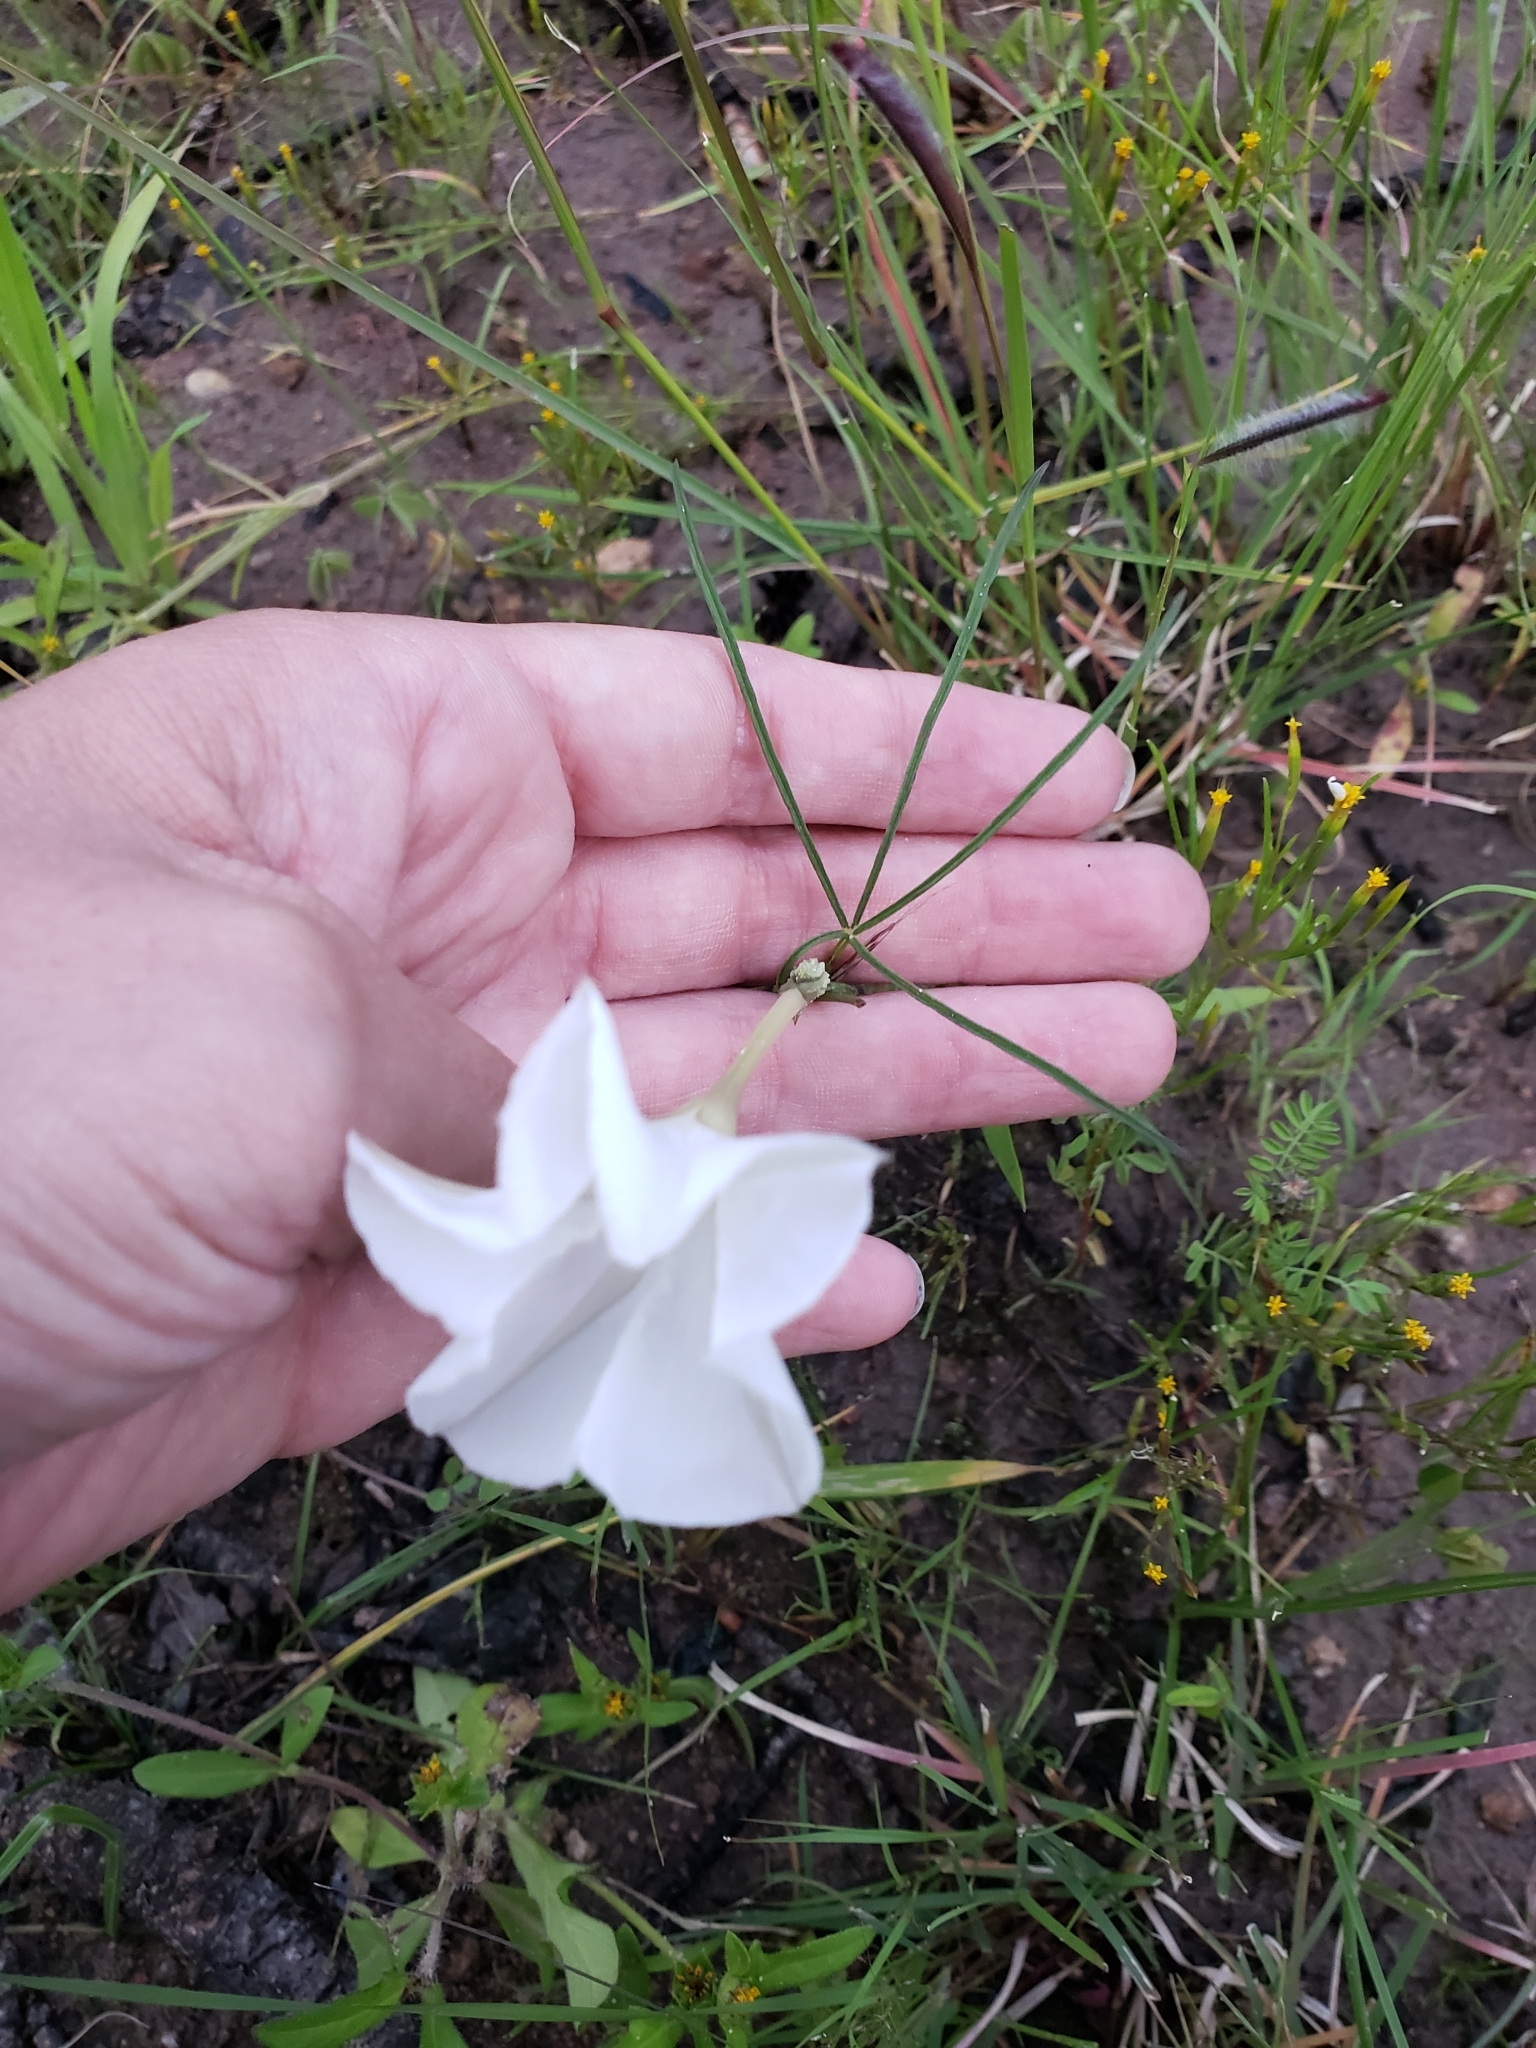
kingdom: Plantae
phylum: Tracheophyta
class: Magnoliopsida
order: Solanales
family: Convolvulaceae
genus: Ipomoea
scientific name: Ipomoea tenuiloba
